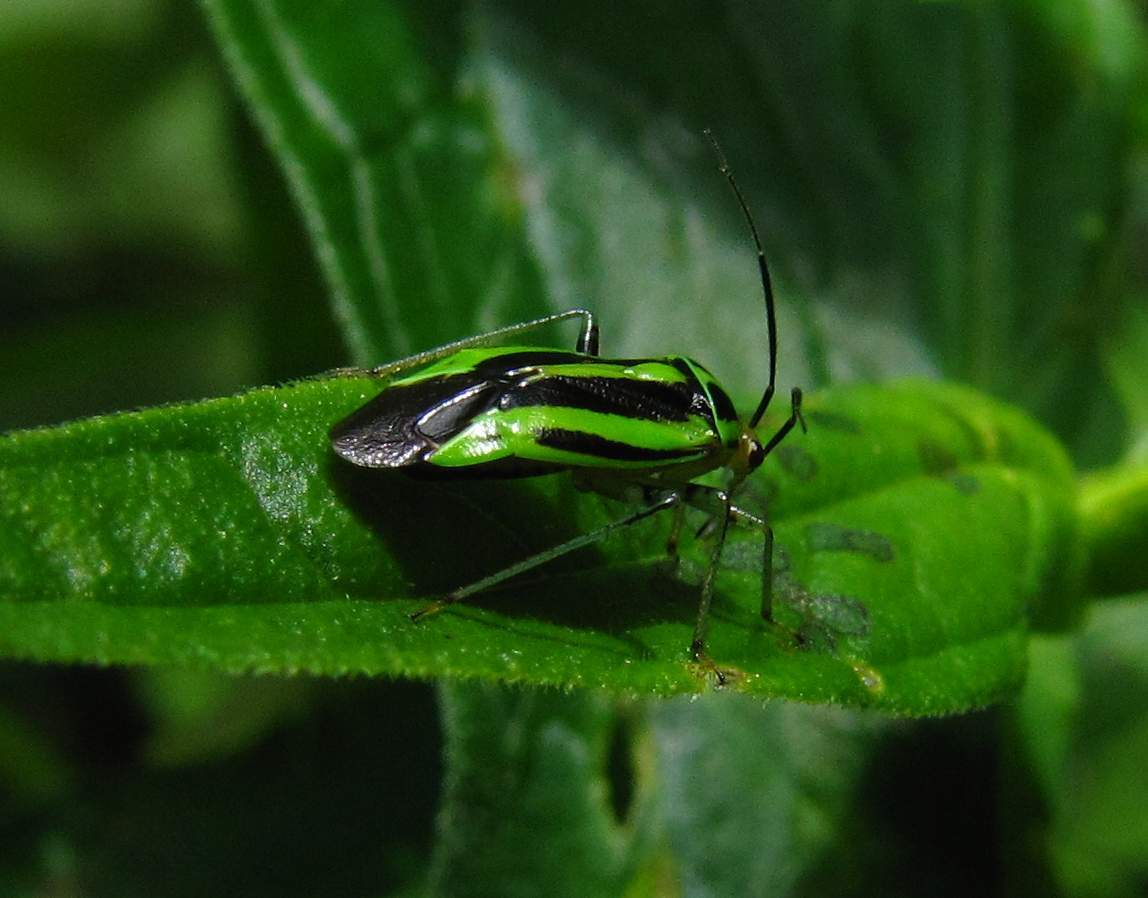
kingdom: Animalia
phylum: Arthropoda
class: Insecta
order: Hemiptera
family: Miridae
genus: Poecilocapsus
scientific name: Poecilocapsus lineatus
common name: Four-lined plant bug
